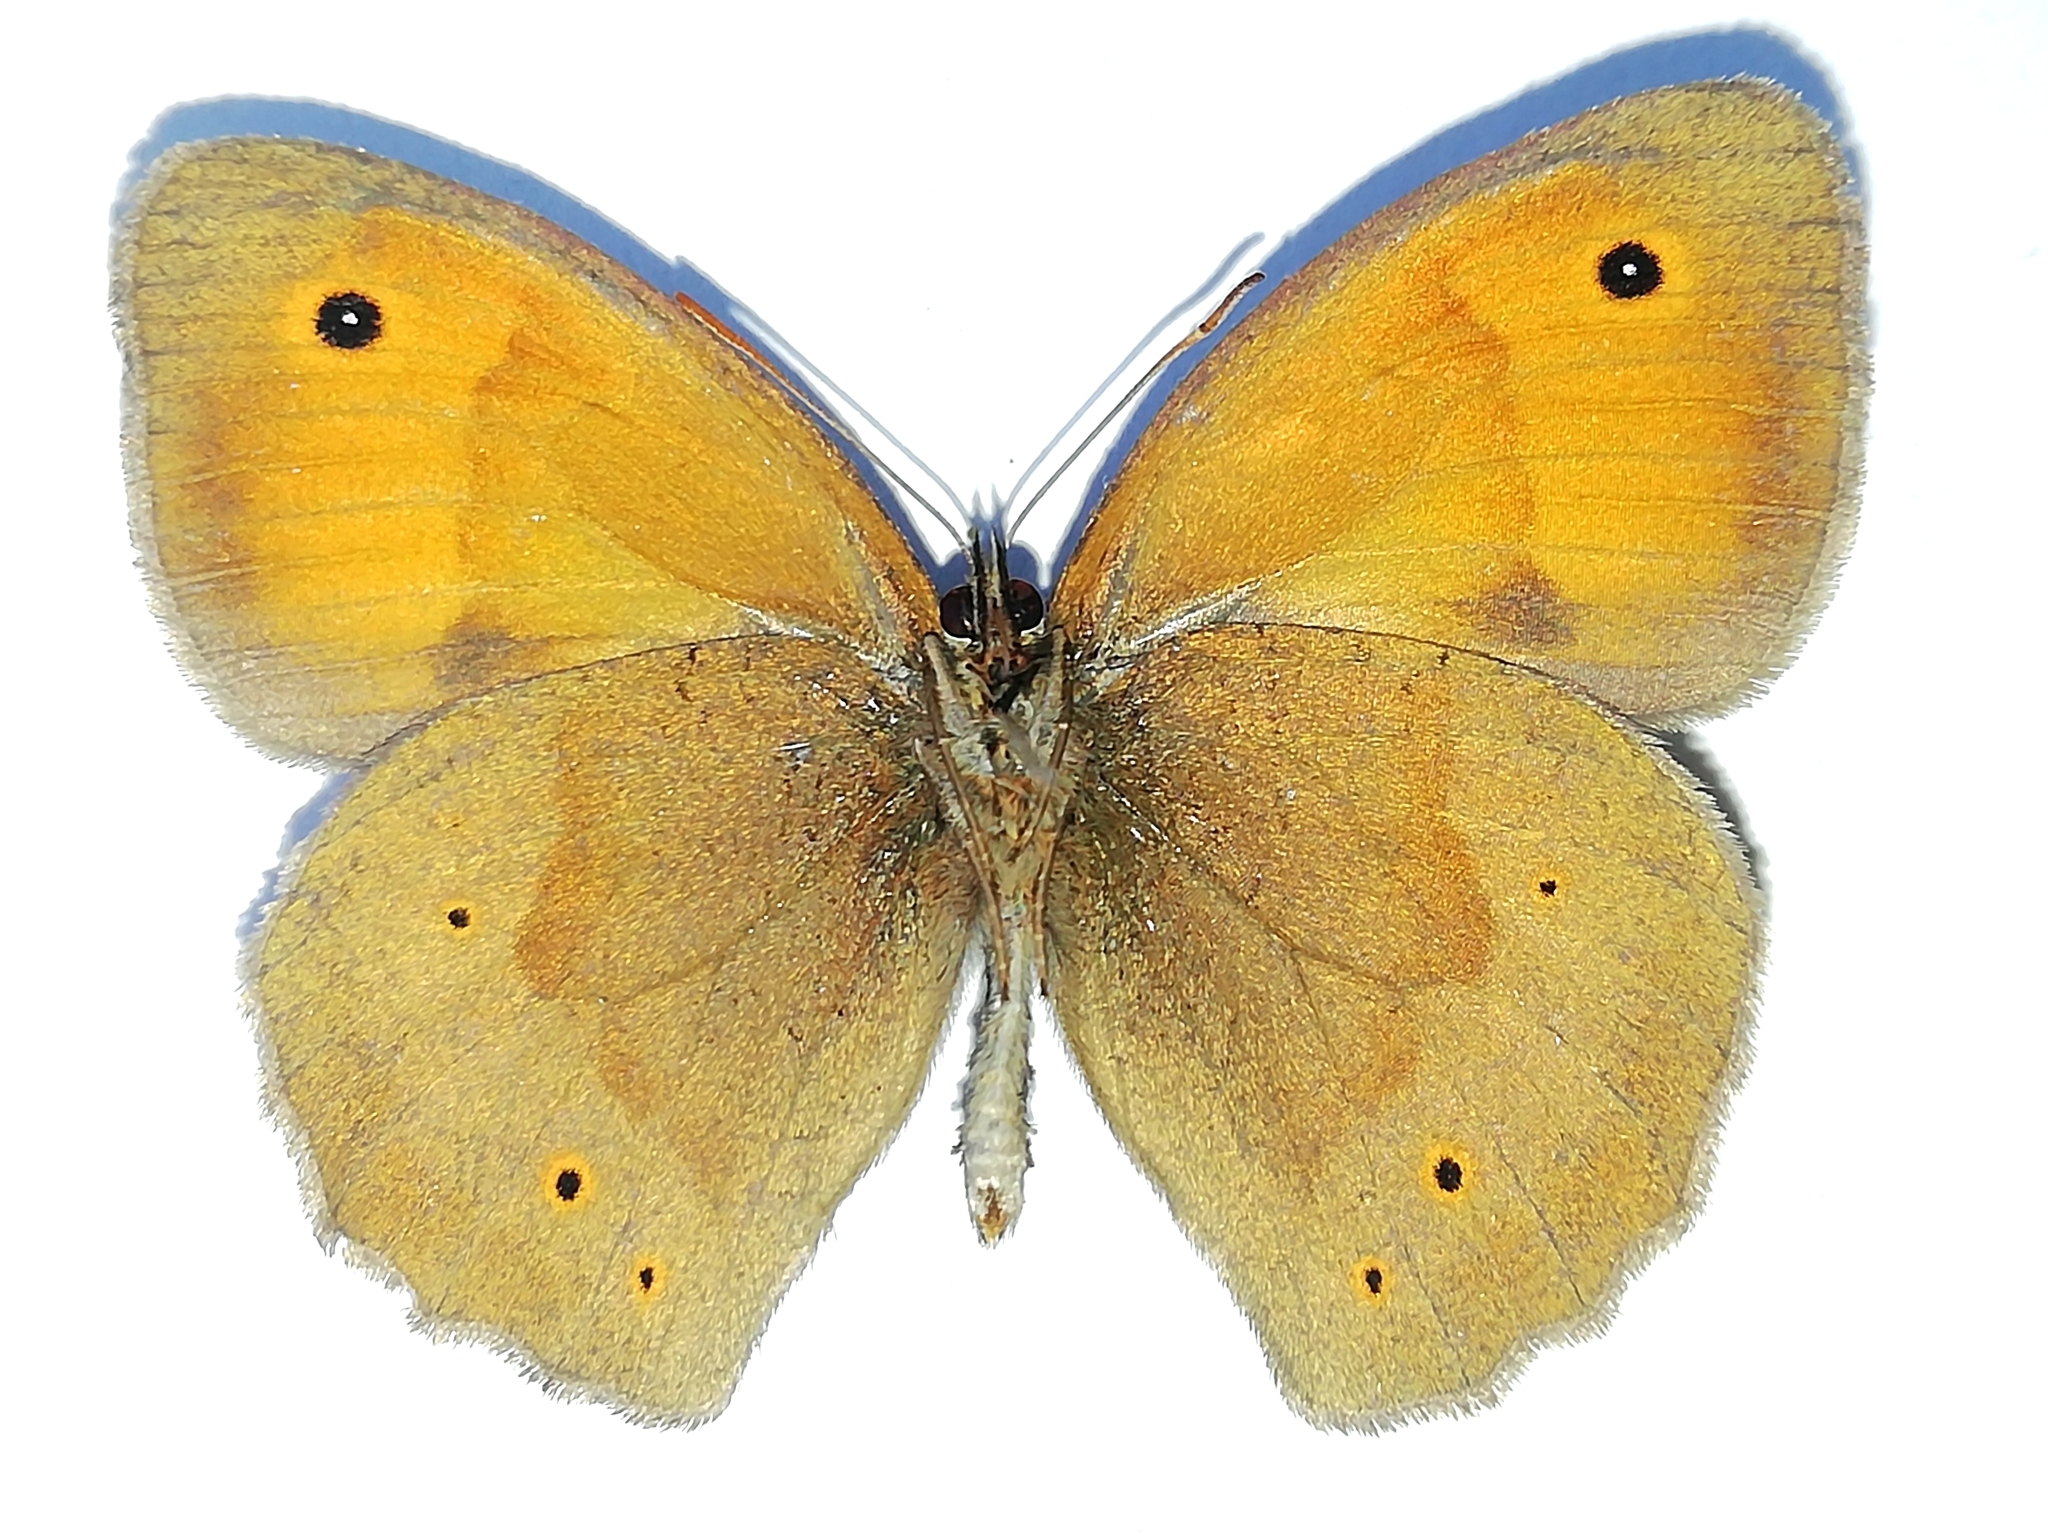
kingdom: Animalia
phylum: Arthropoda
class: Insecta
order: Lepidoptera
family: Nymphalidae
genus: Maniola
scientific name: Maniola jurtina
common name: Meadow brown
